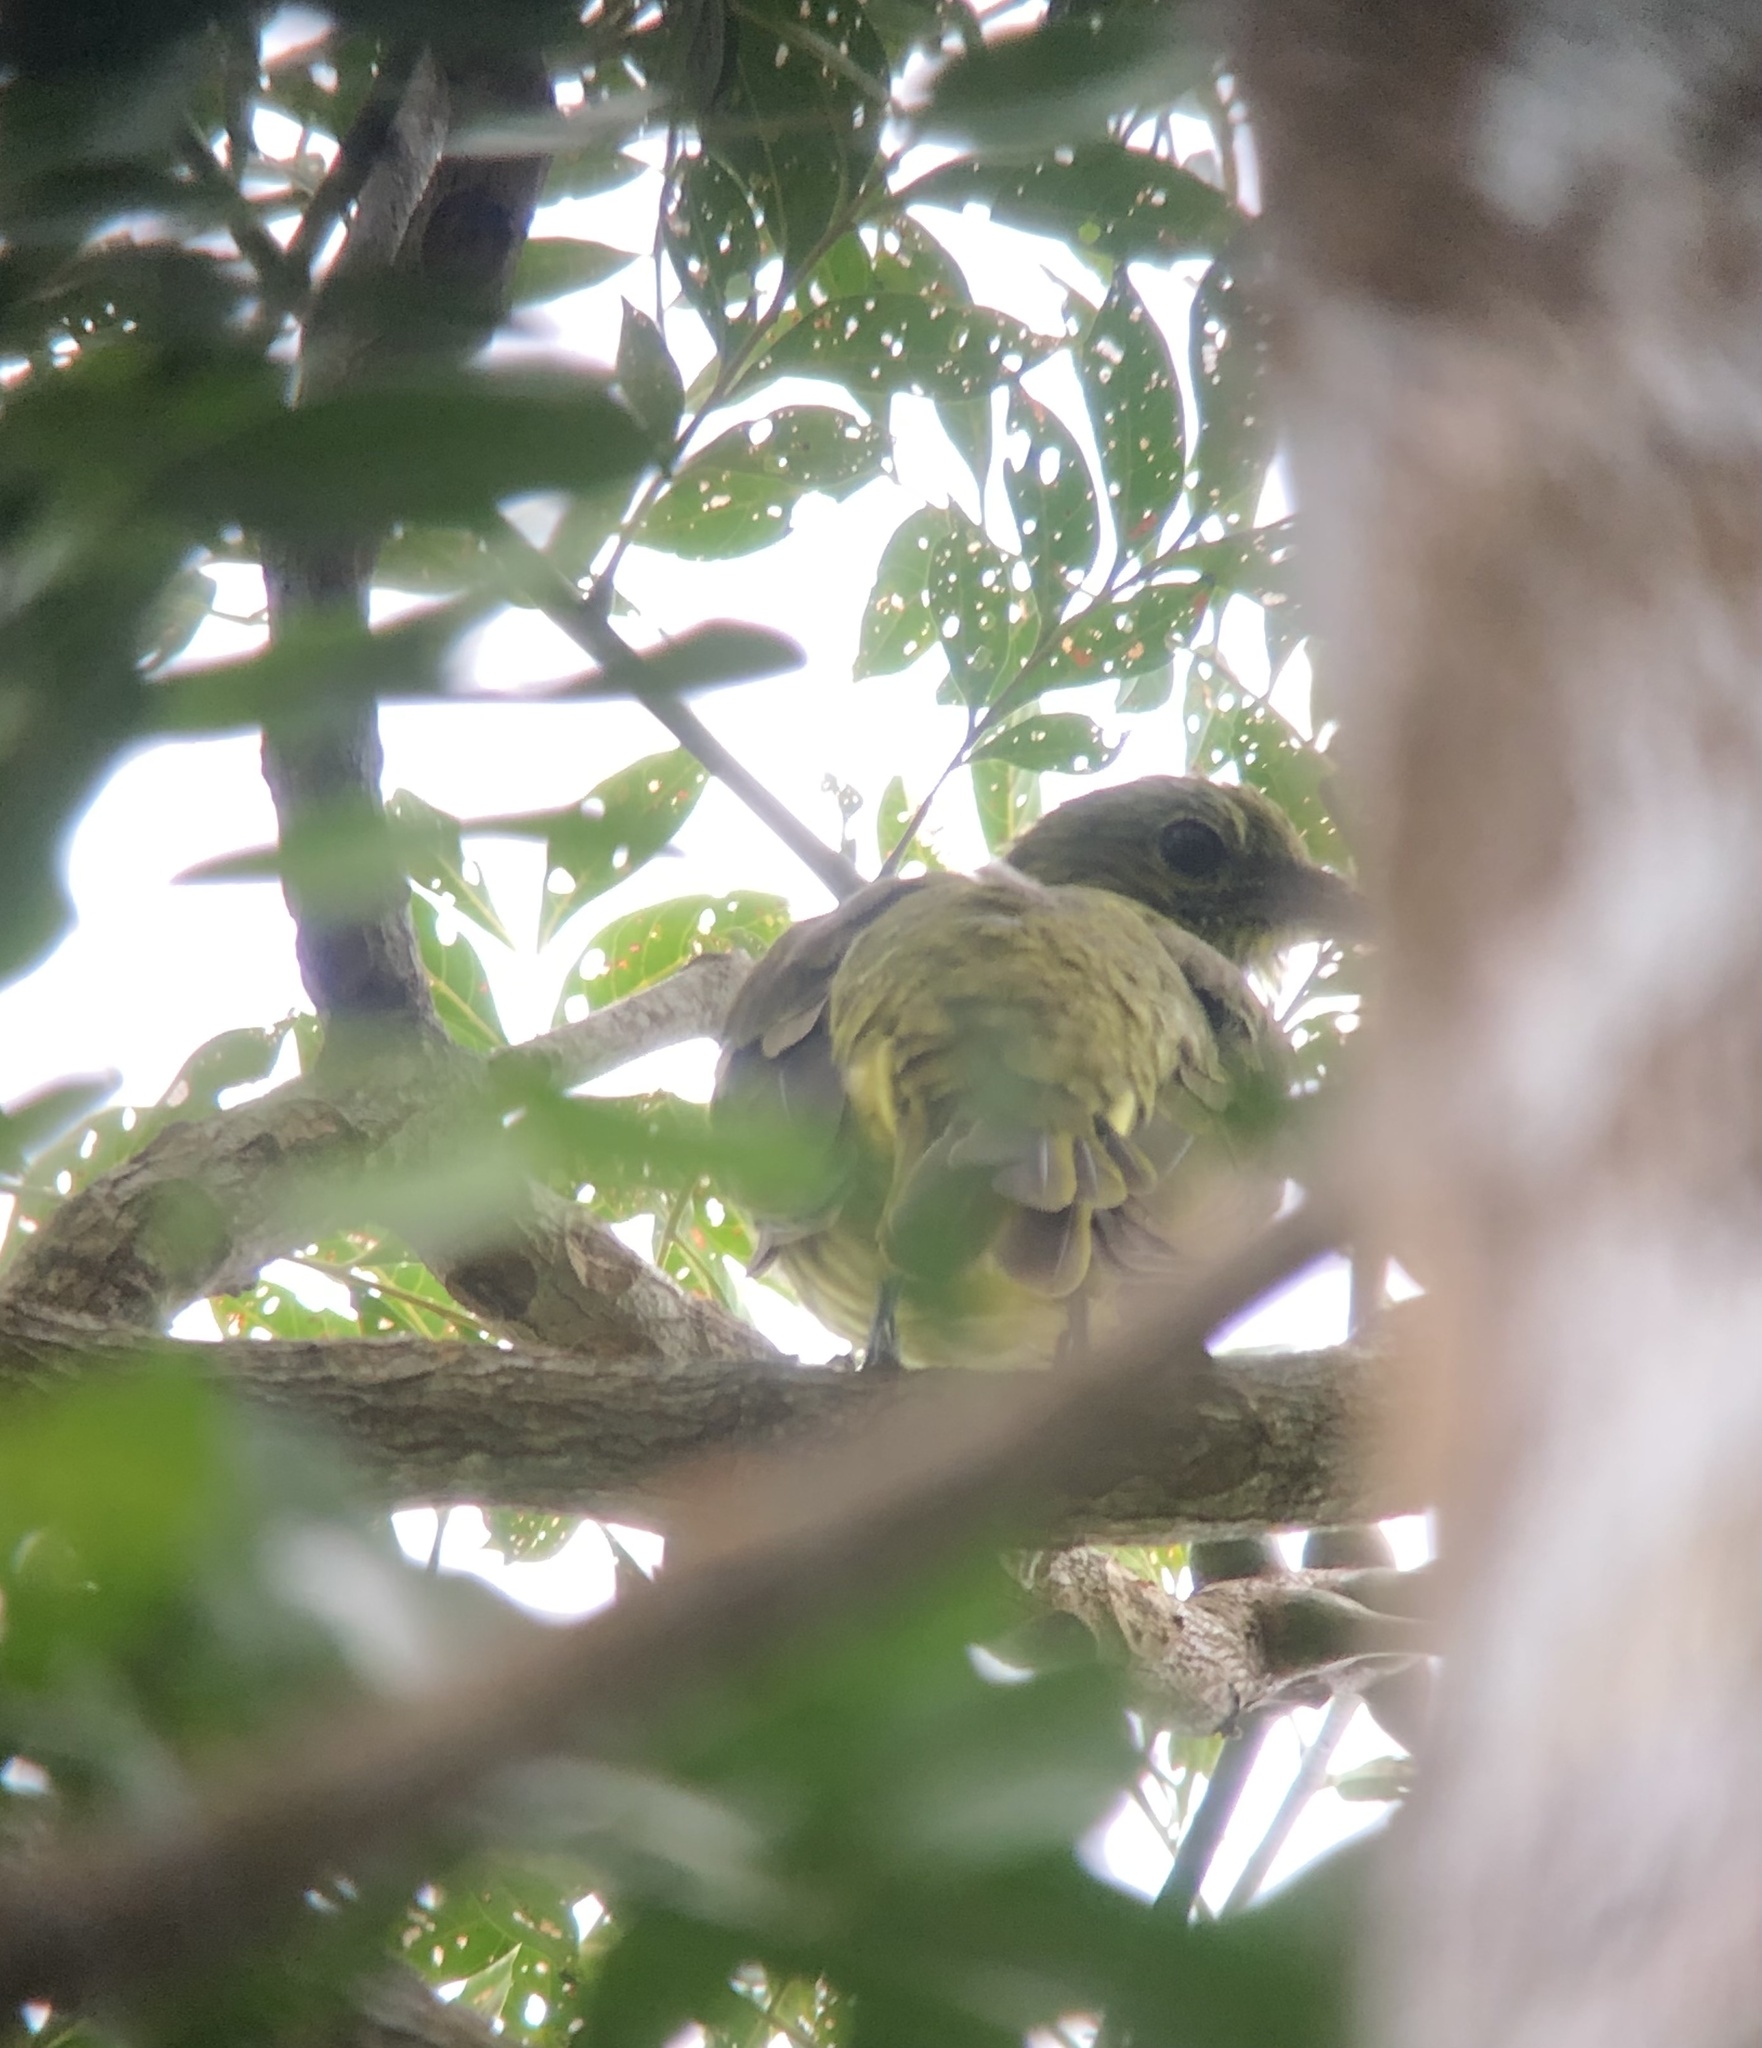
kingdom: Animalia
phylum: Chordata
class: Aves
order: Passeriformes
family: Cotingidae
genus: Procnias
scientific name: Procnias tricarunculatus
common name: Three-wattled bellbird
